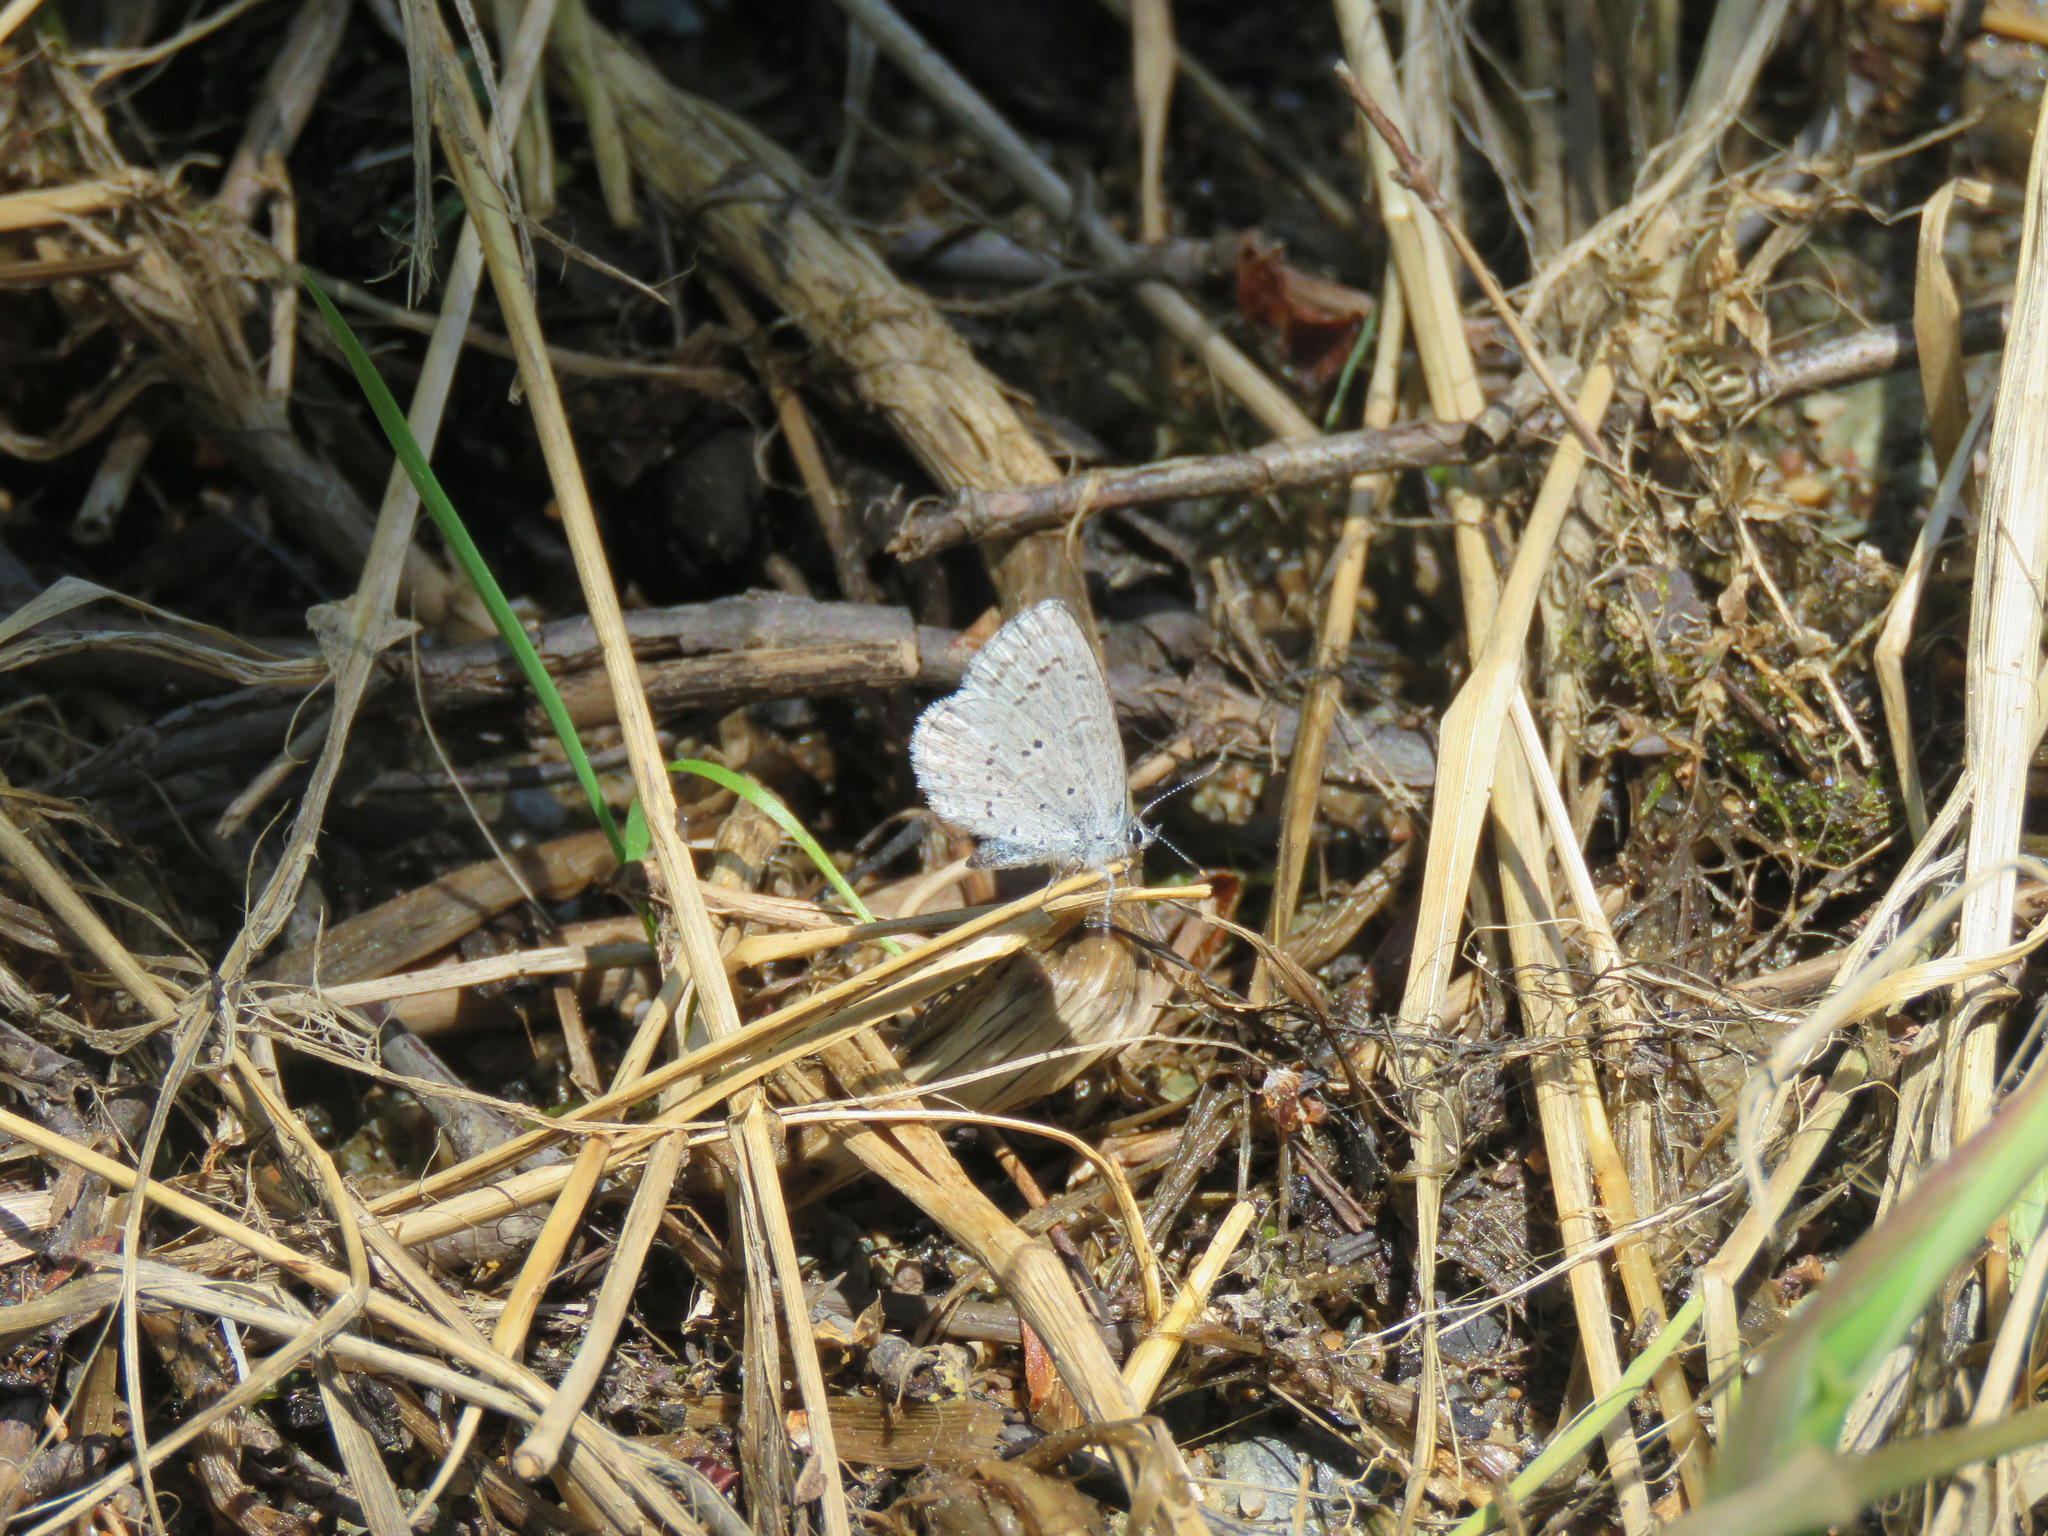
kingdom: Animalia
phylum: Arthropoda
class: Insecta
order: Lepidoptera
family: Lycaenidae
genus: Celastrina
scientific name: Celastrina ladon
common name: Spring azure
